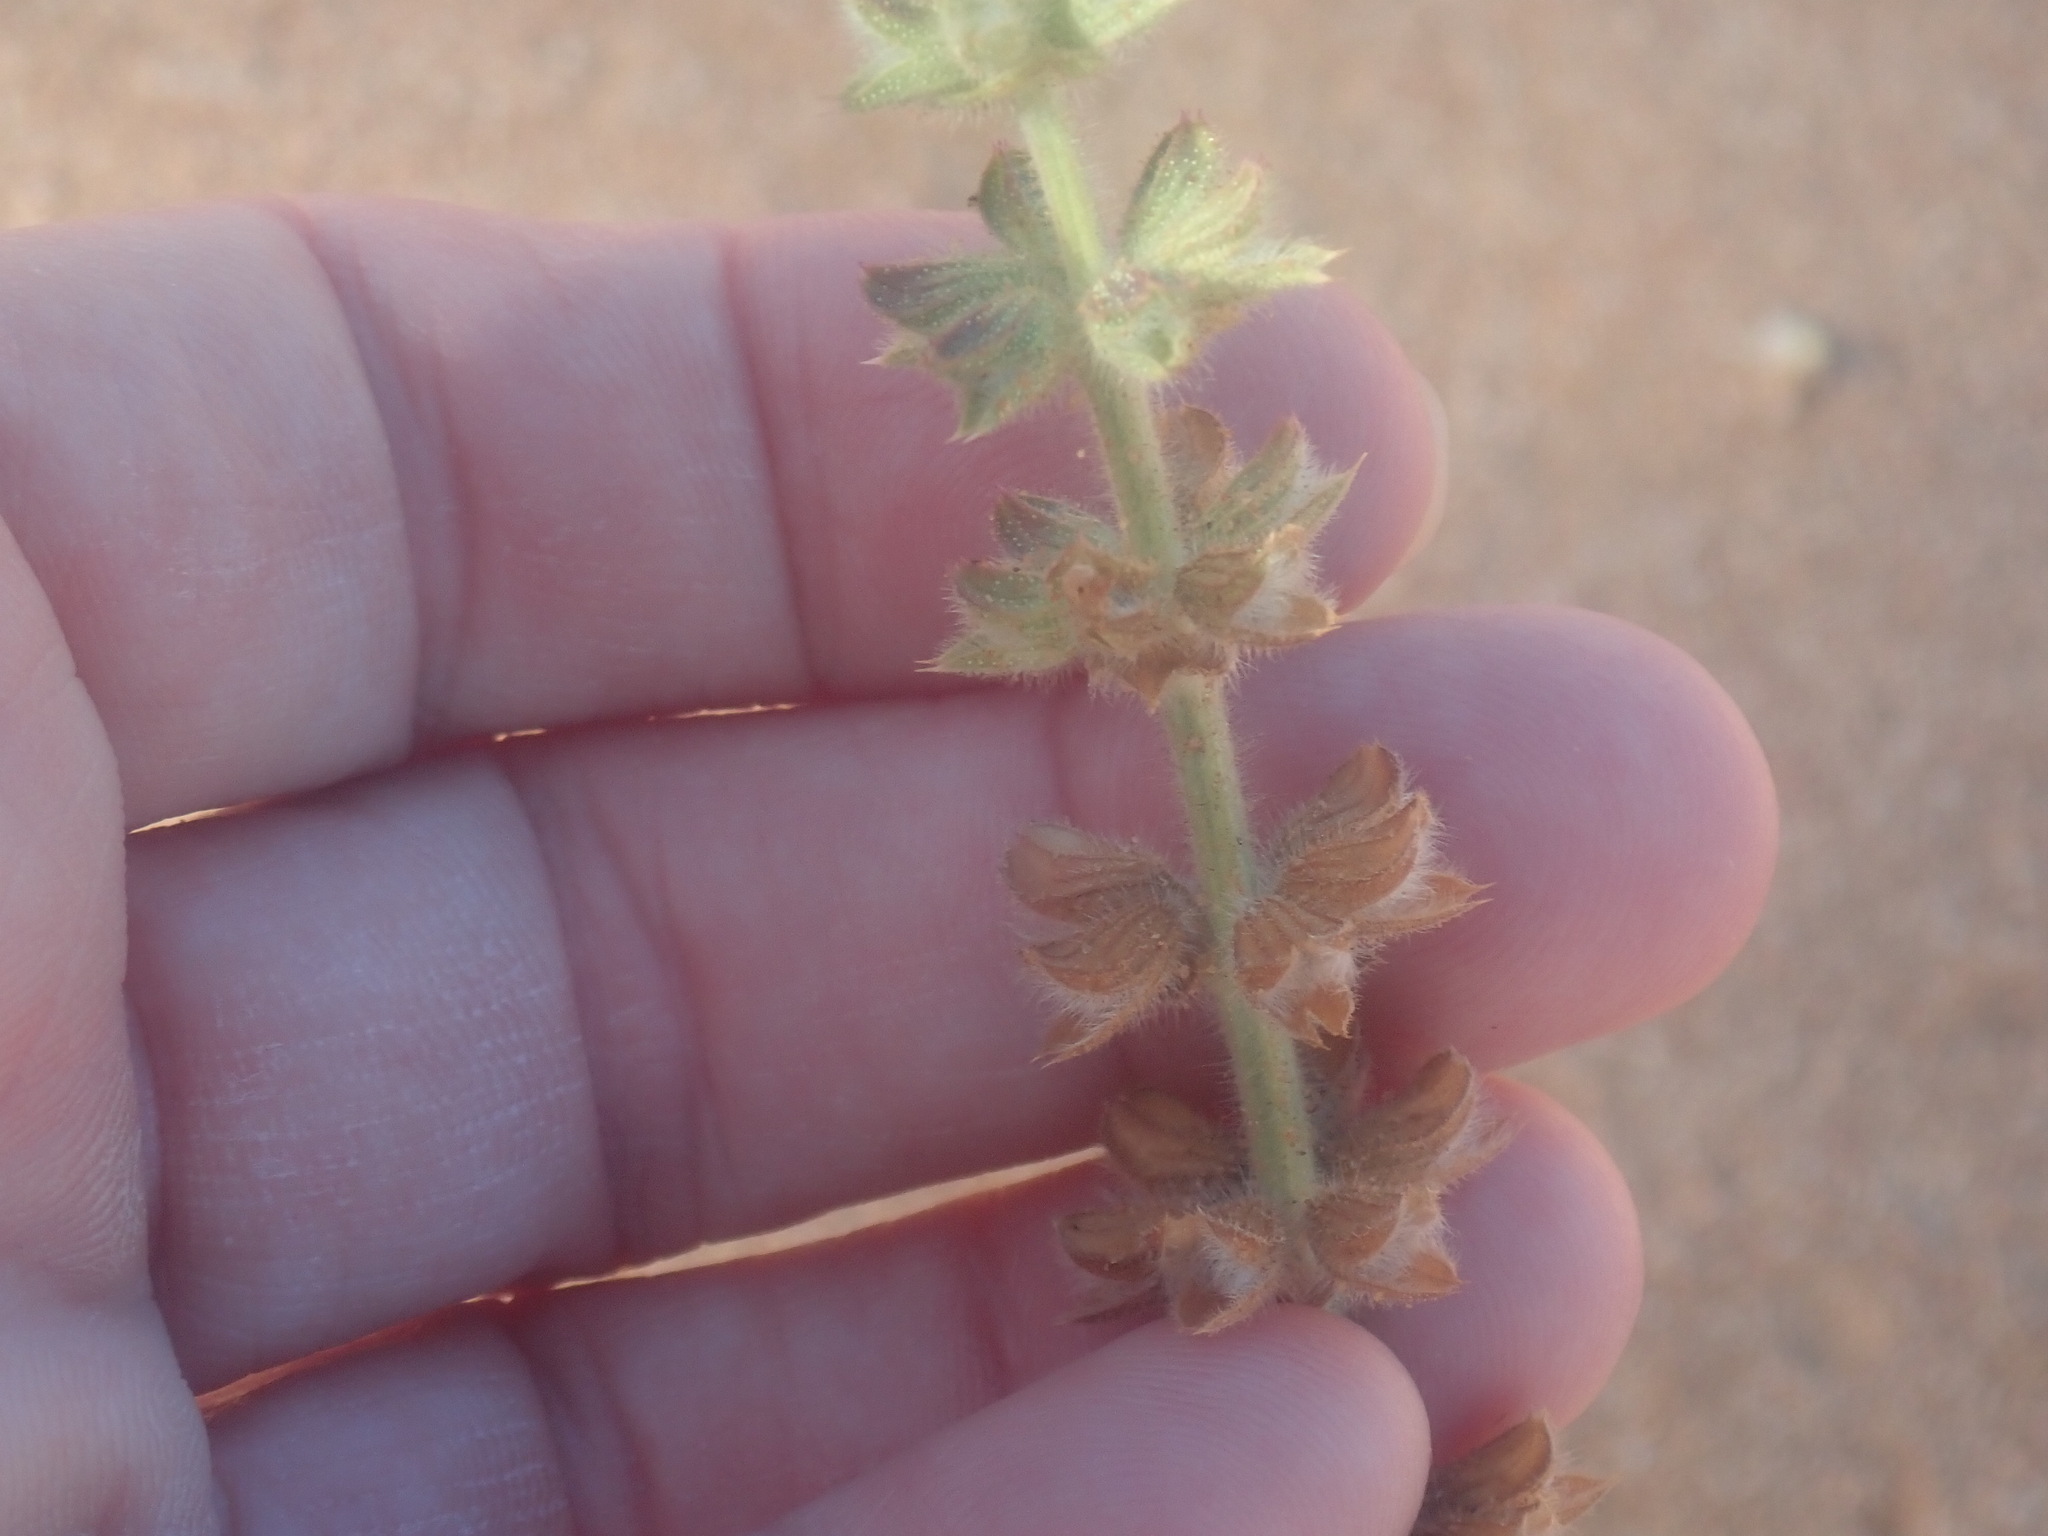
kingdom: Plantae
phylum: Tracheophyta
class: Magnoliopsida
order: Lamiales
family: Lamiaceae
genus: Salvia
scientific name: Salvia verbenaca
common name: Wild clary
